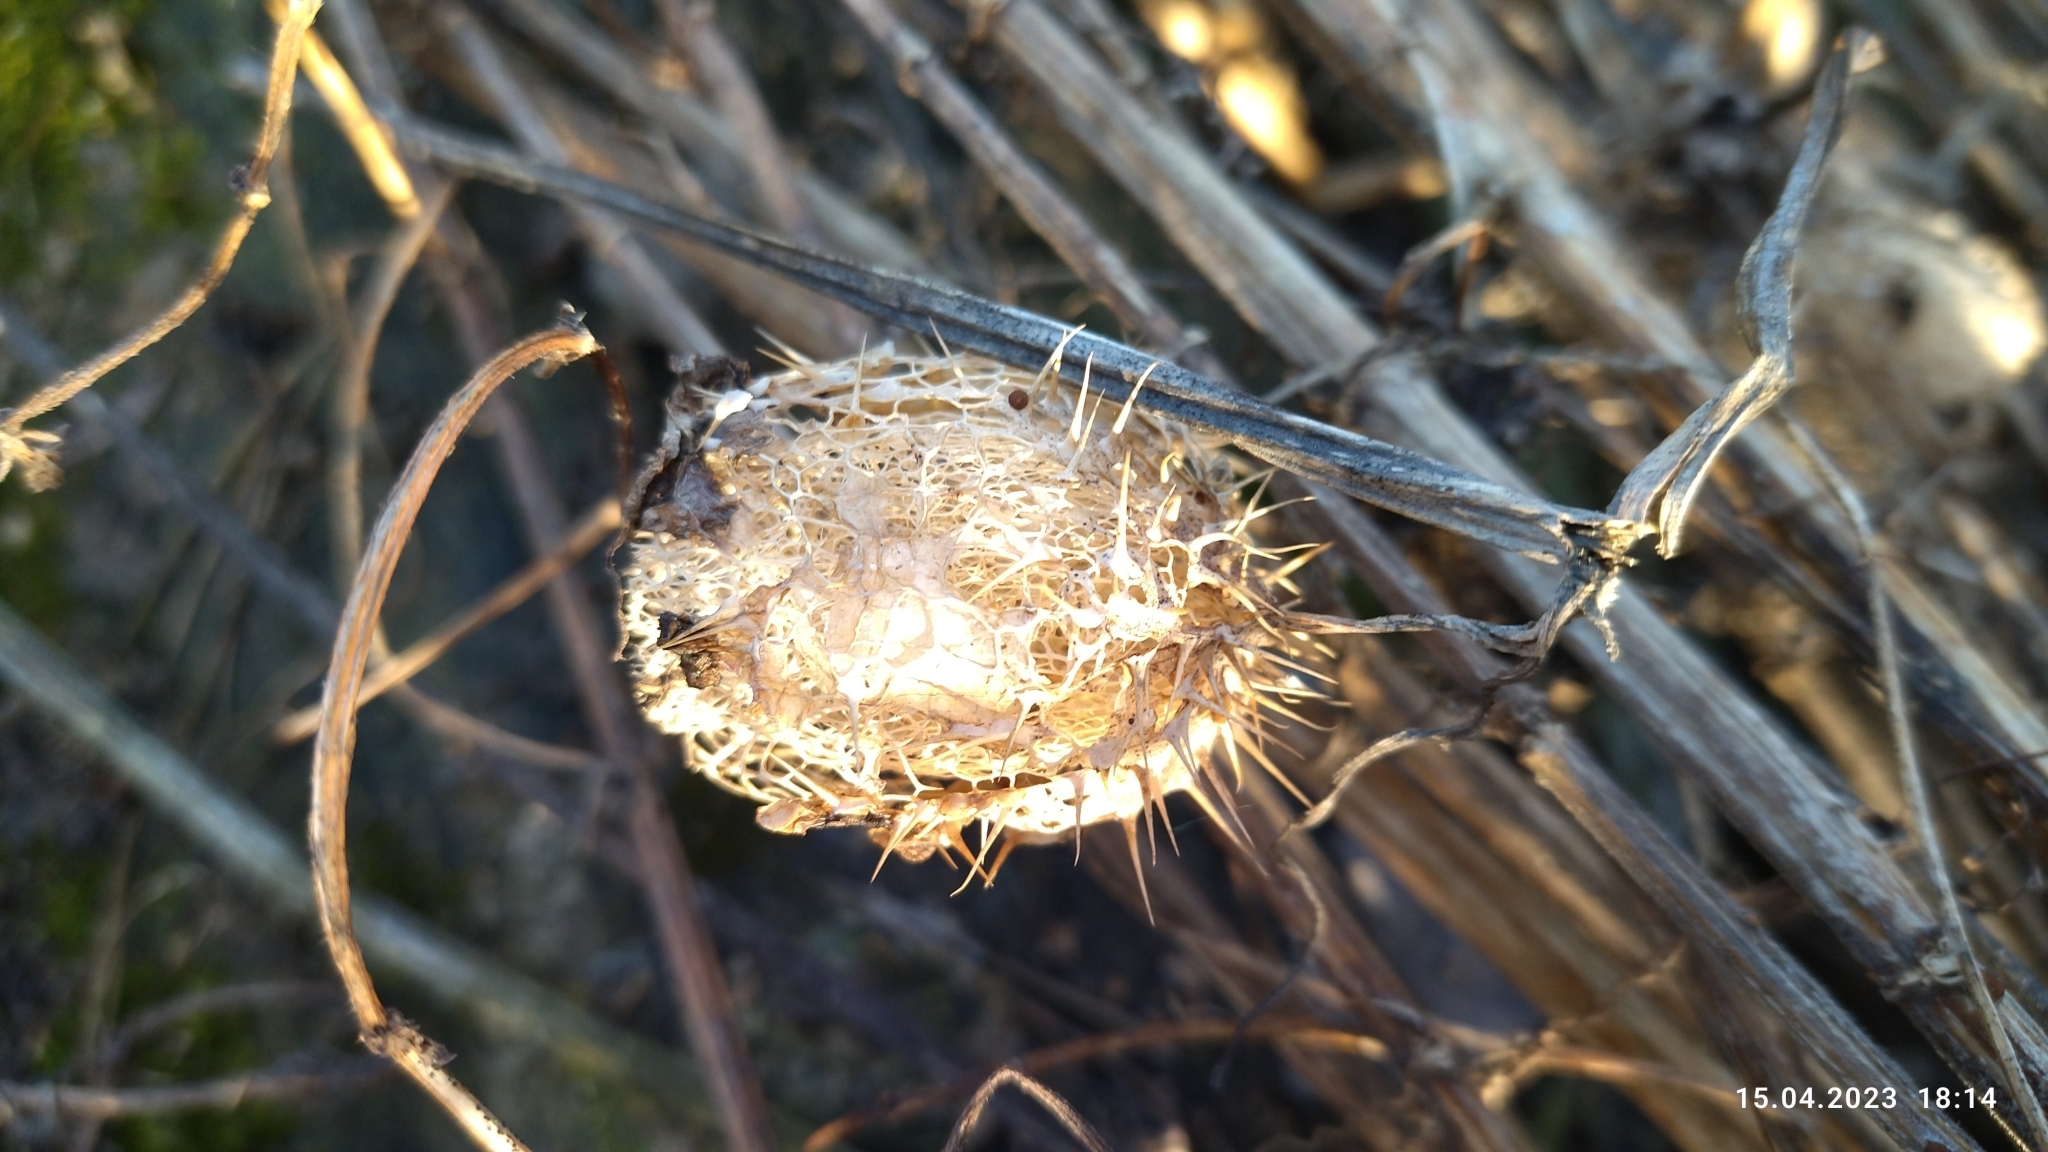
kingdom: Plantae
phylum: Tracheophyta
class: Magnoliopsida
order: Cucurbitales
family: Cucurbitaceae
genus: Echinocystis
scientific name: Echinocystis lobata
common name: Wild cucumber
